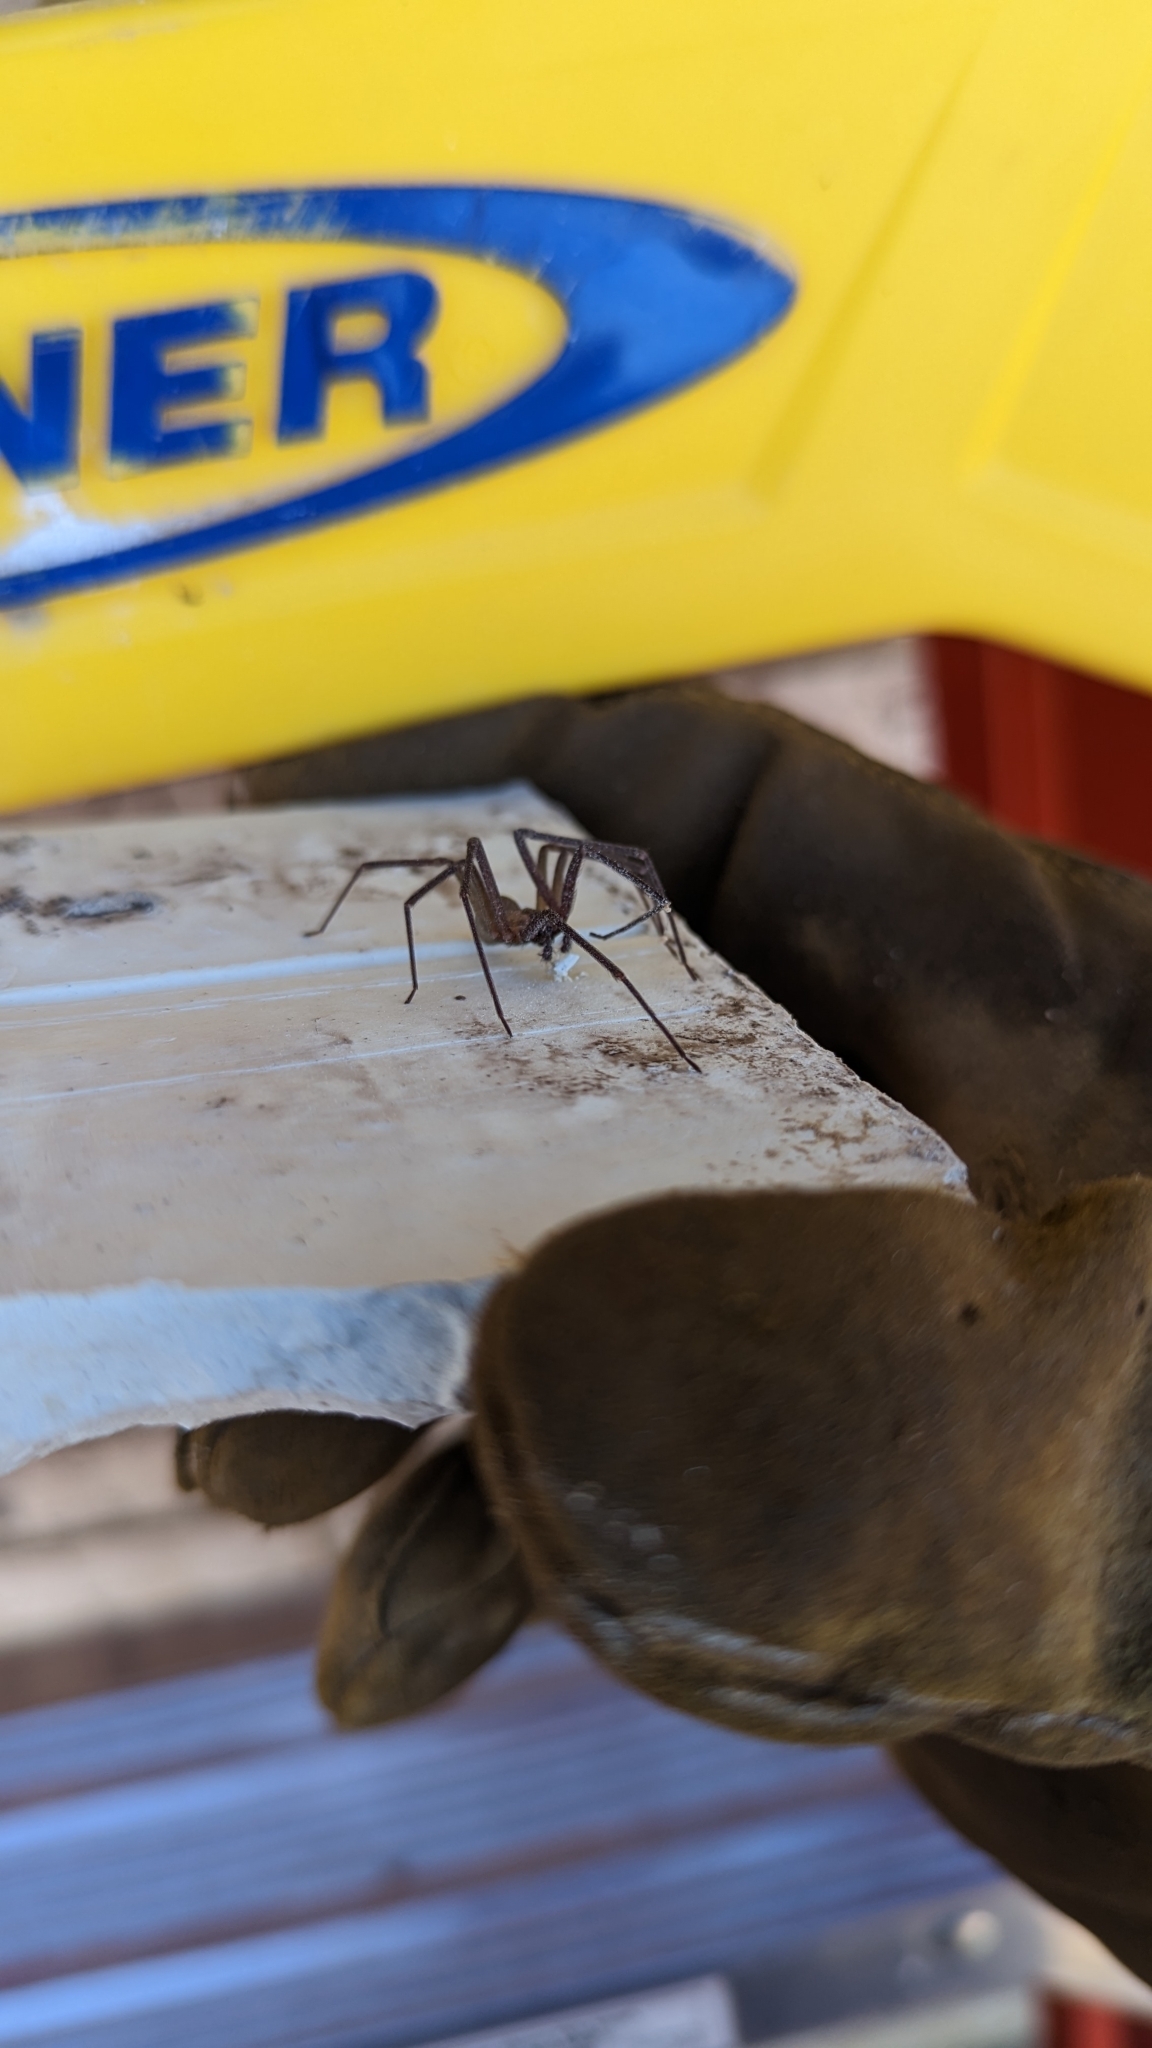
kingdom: Animalia
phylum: Arthropoda
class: Arachnida
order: Araneae
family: Sicariidae
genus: Loxosceles
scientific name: Loxosceles reclusa
